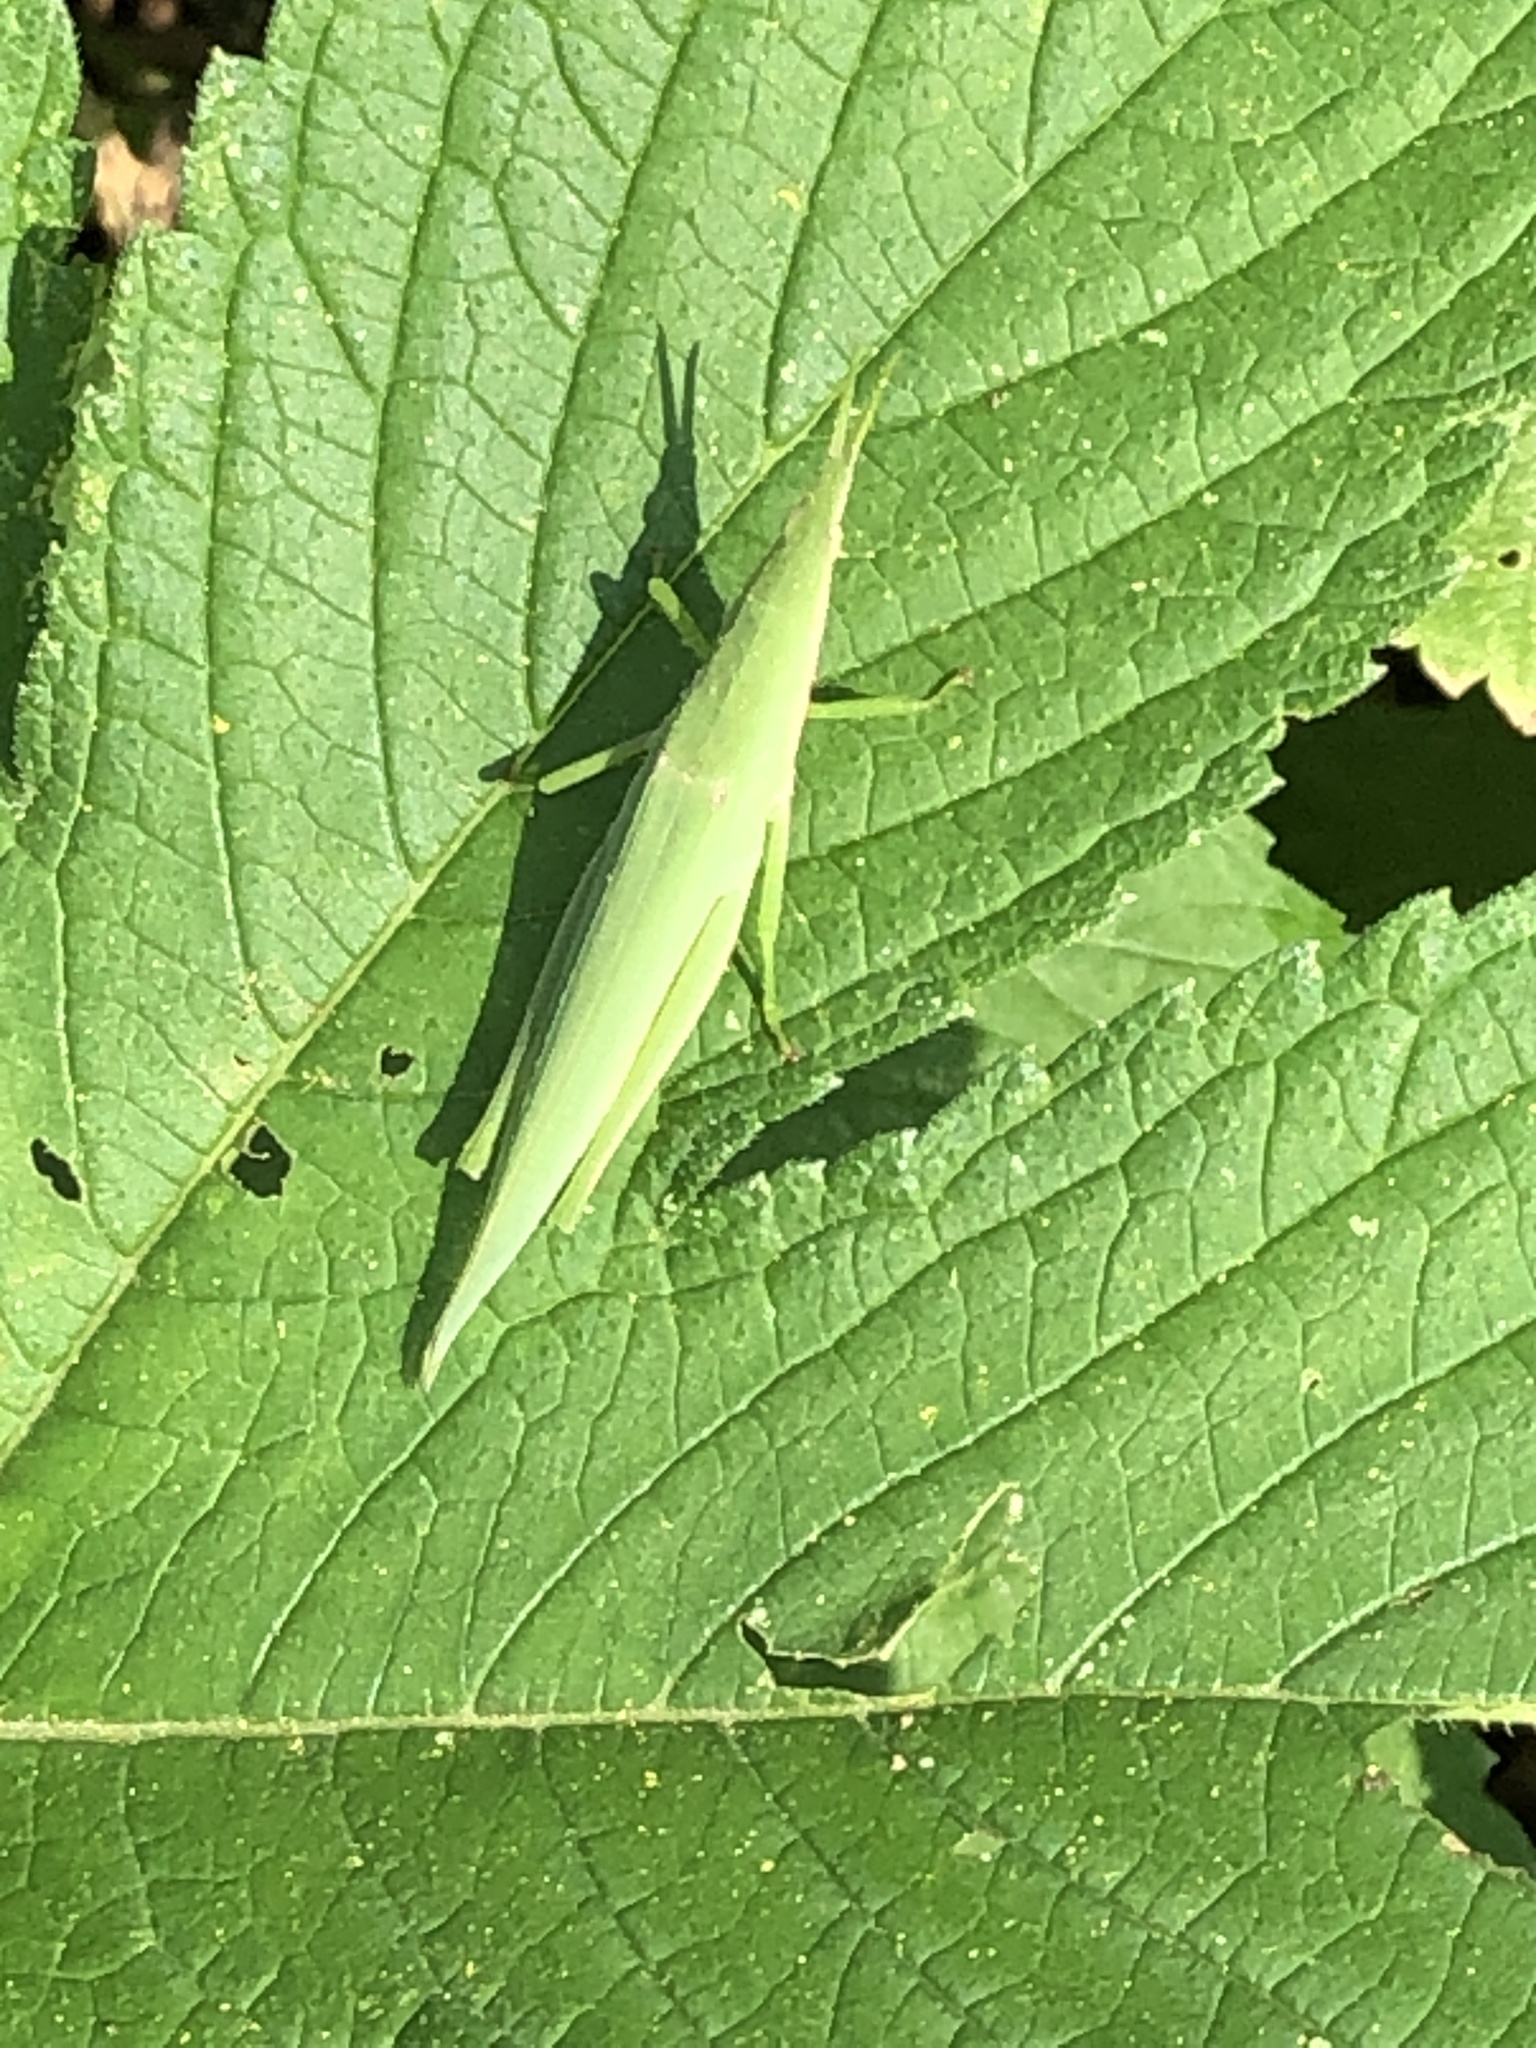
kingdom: Animalia
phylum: Arthropoda
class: Insecta
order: Orthoptera
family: Pyrgomorphidae
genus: Atractomorpha
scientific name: Atractomorpha lata
